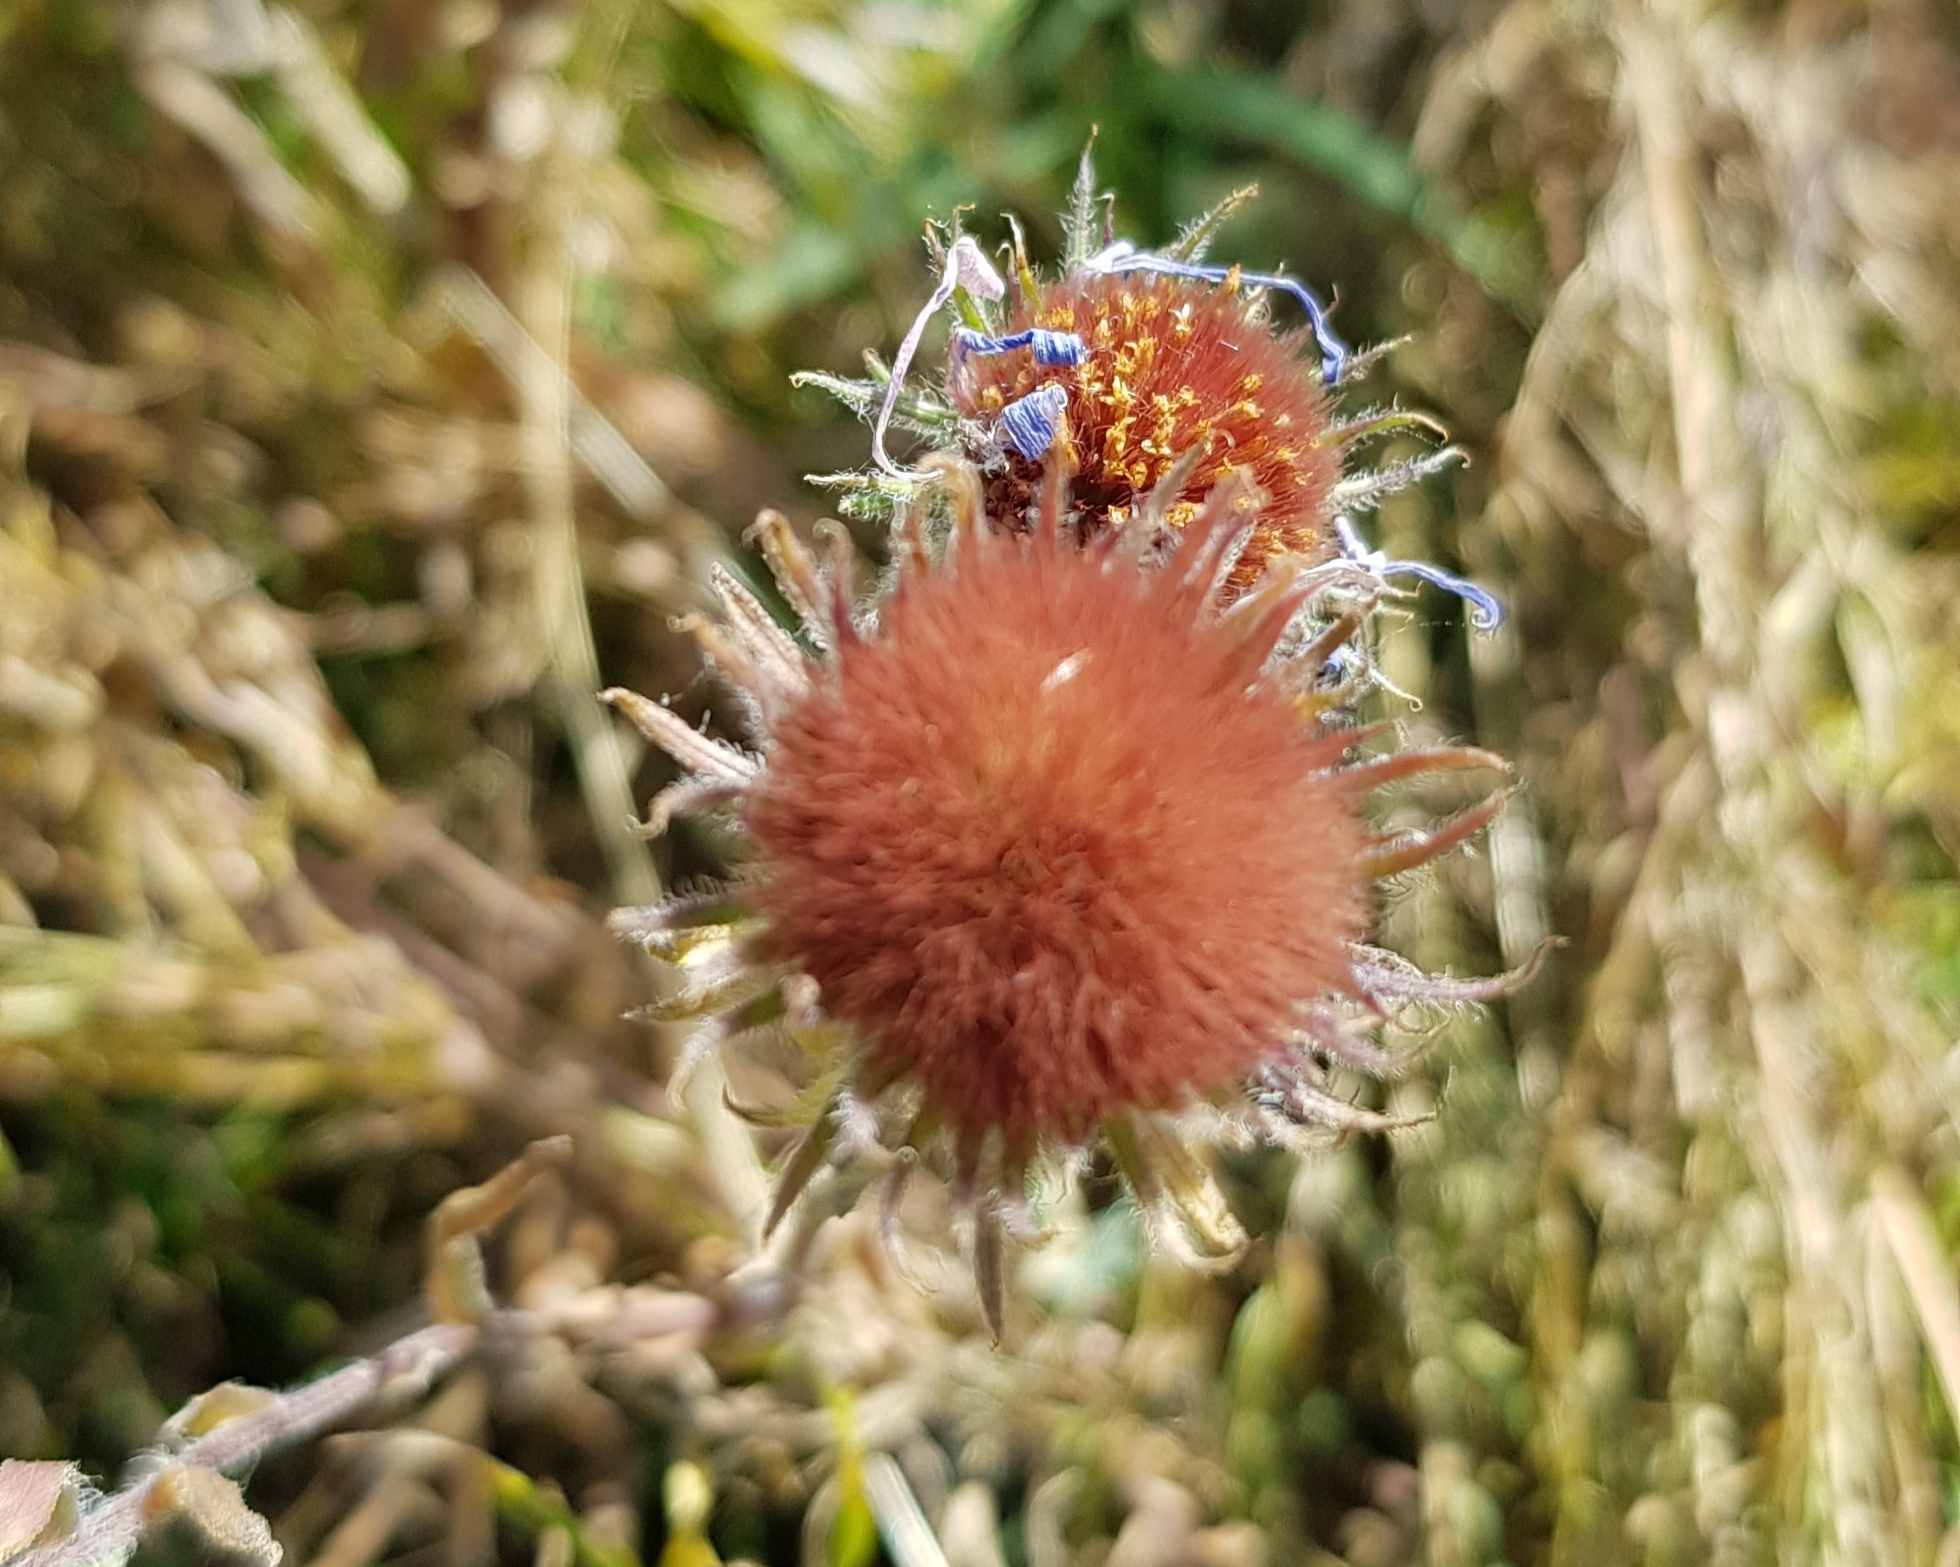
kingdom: Plantae
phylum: Tracheophyta
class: Magnoliopsida
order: Asterales
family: Asteraceae
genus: Heteropappus
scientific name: Heteropappus altaicus
